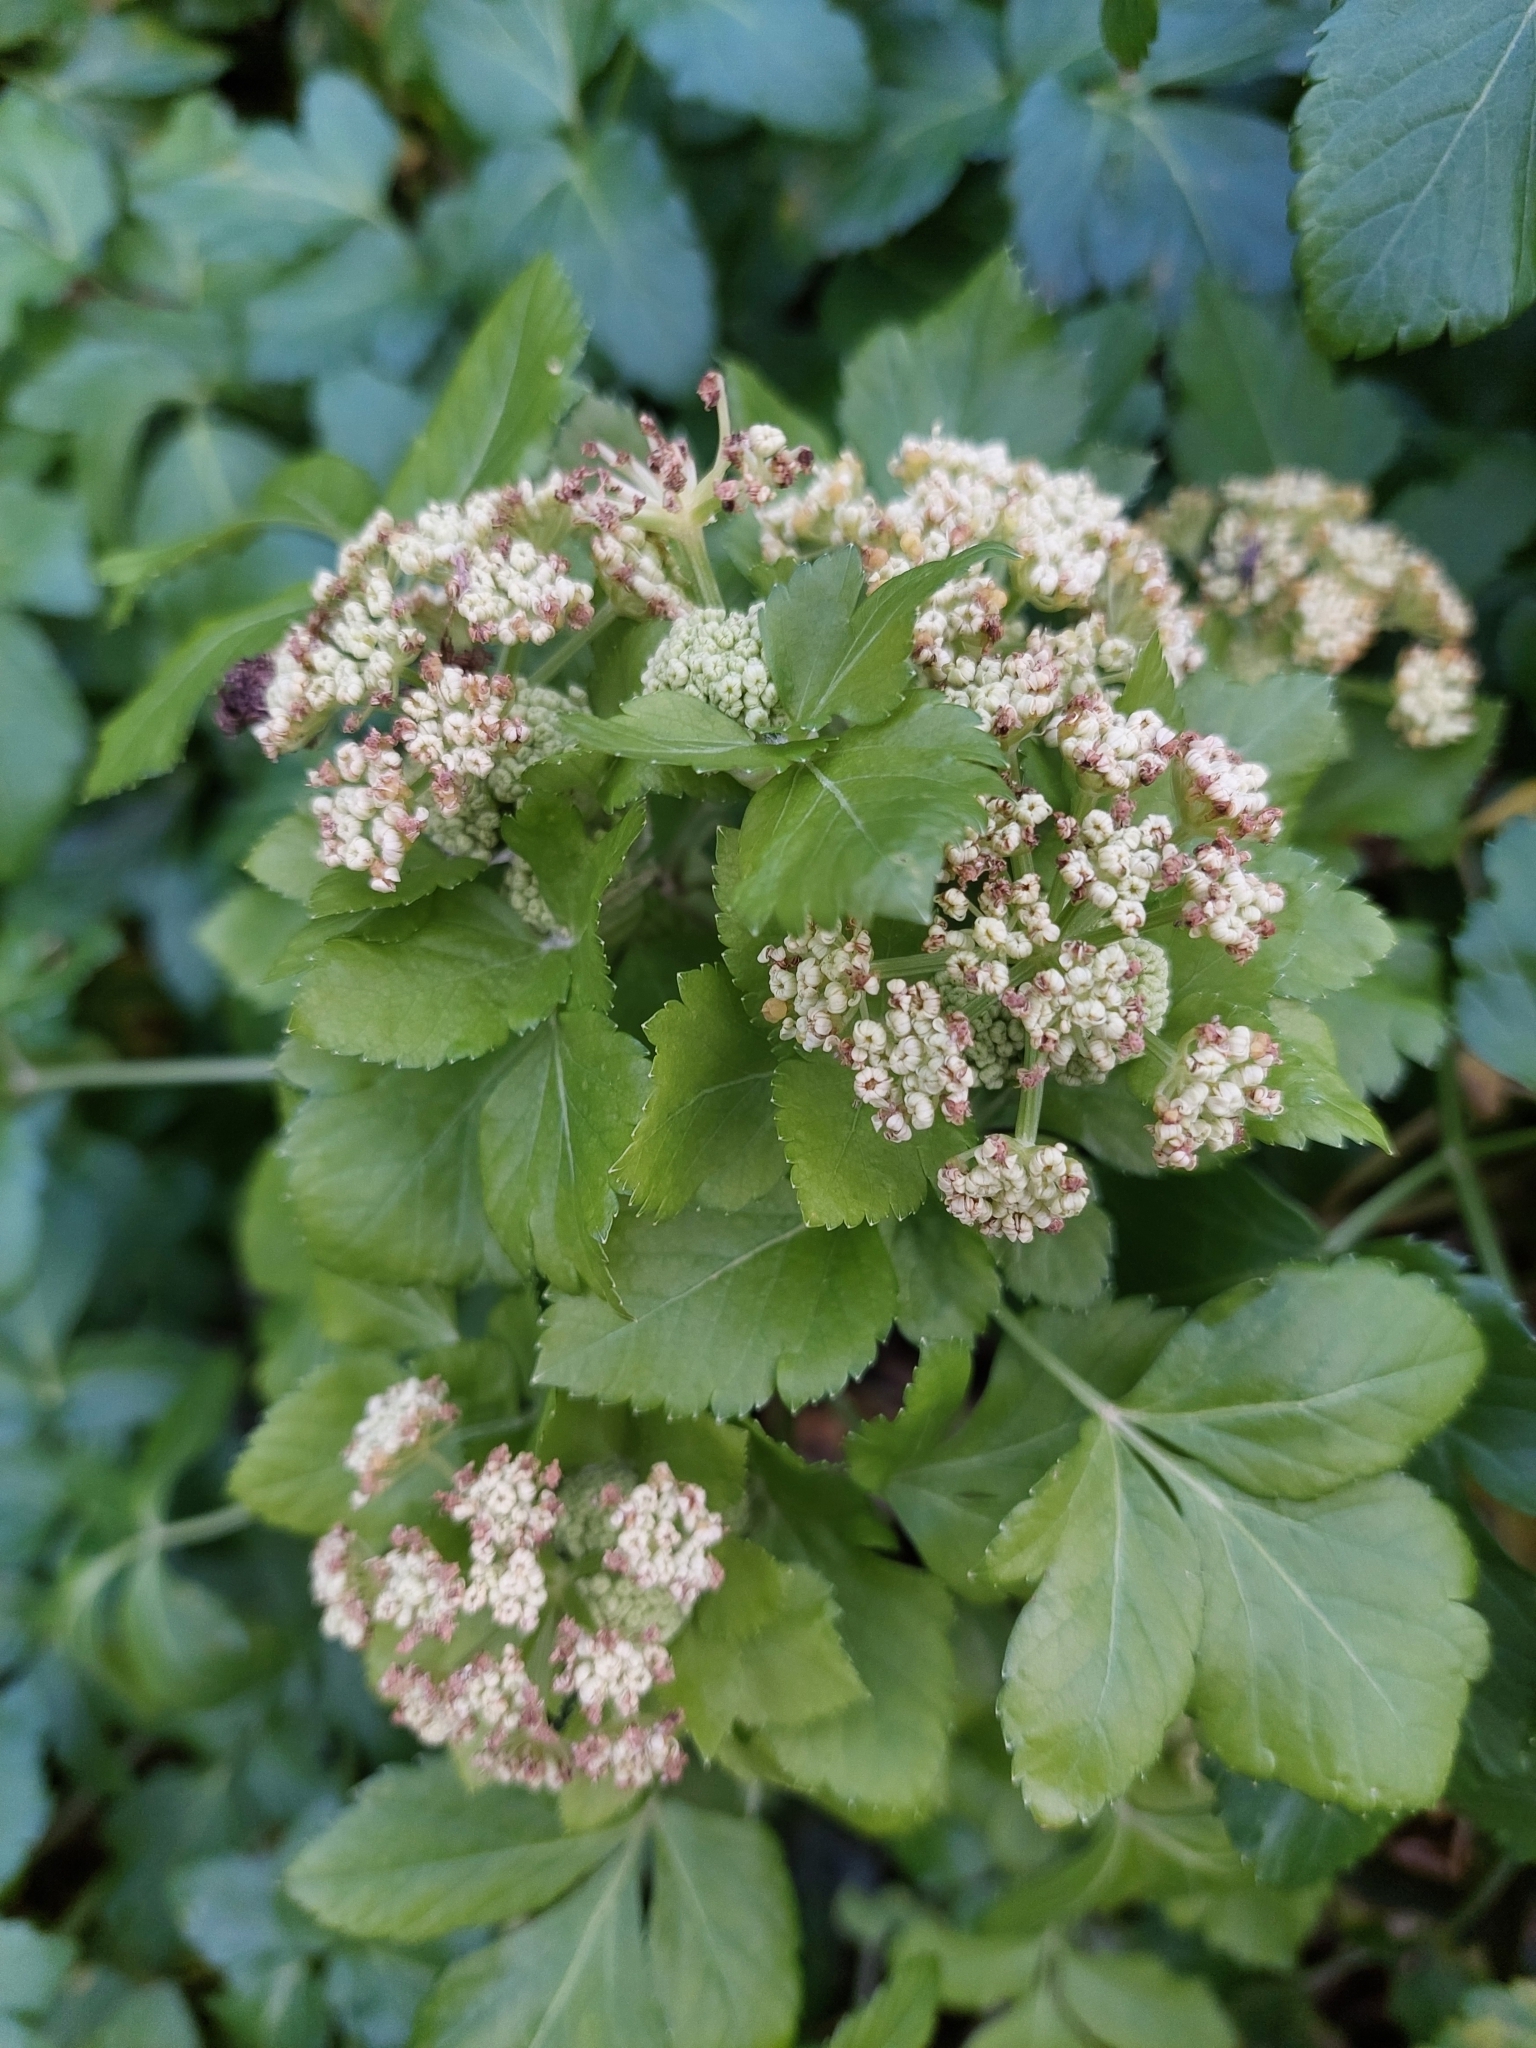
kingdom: Plantae
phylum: Tracheophyta
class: Magnoliopsida
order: Apiales
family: Apiaceae
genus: Smyrnium
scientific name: Smyrnium olusatrum
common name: Alexanders
